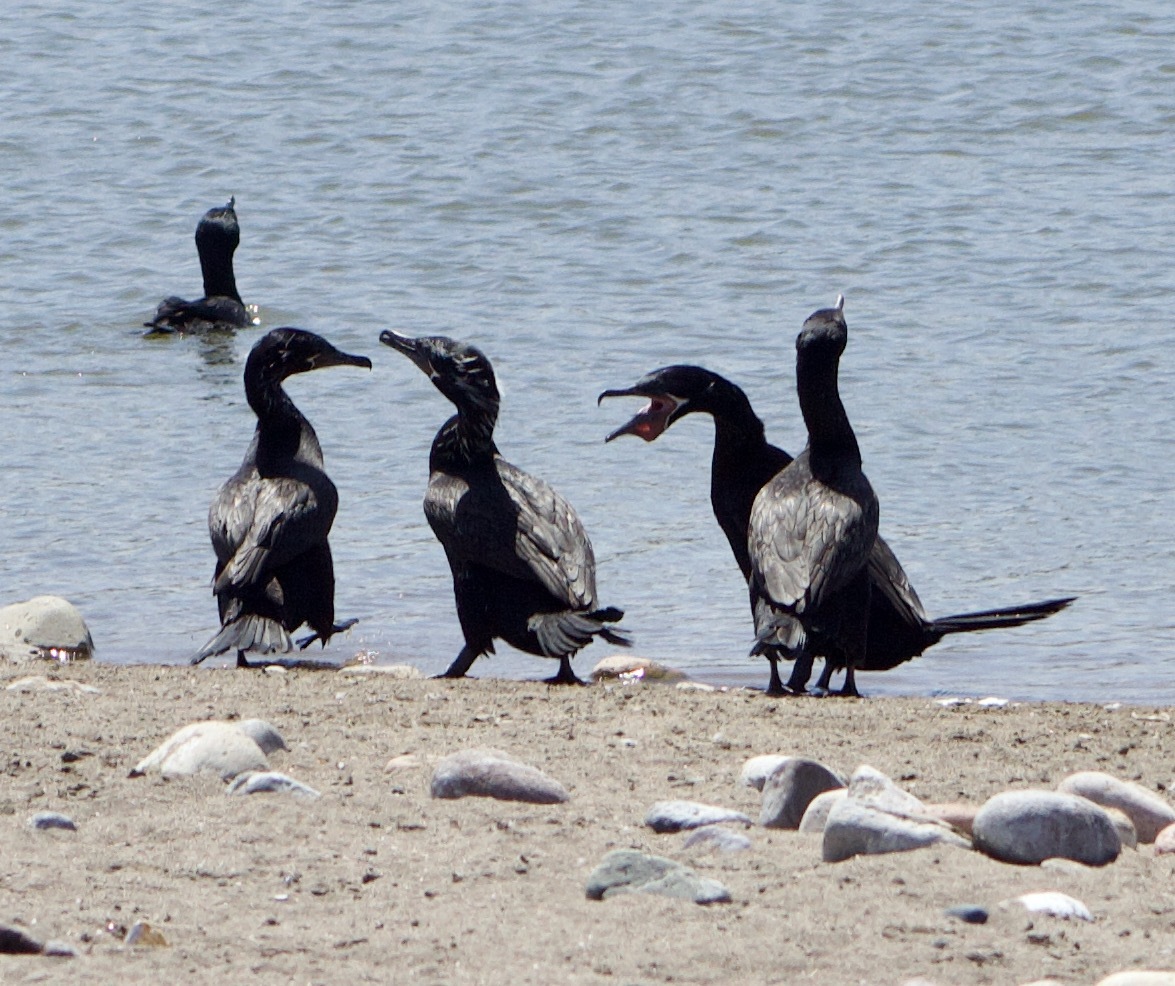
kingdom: Animalia
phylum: Chordata
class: Aves
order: Suliformes
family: Phalacrocoracidae
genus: Phalacrocorax
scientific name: Phalacrocorax brasilianus
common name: Neotropic cormorant
